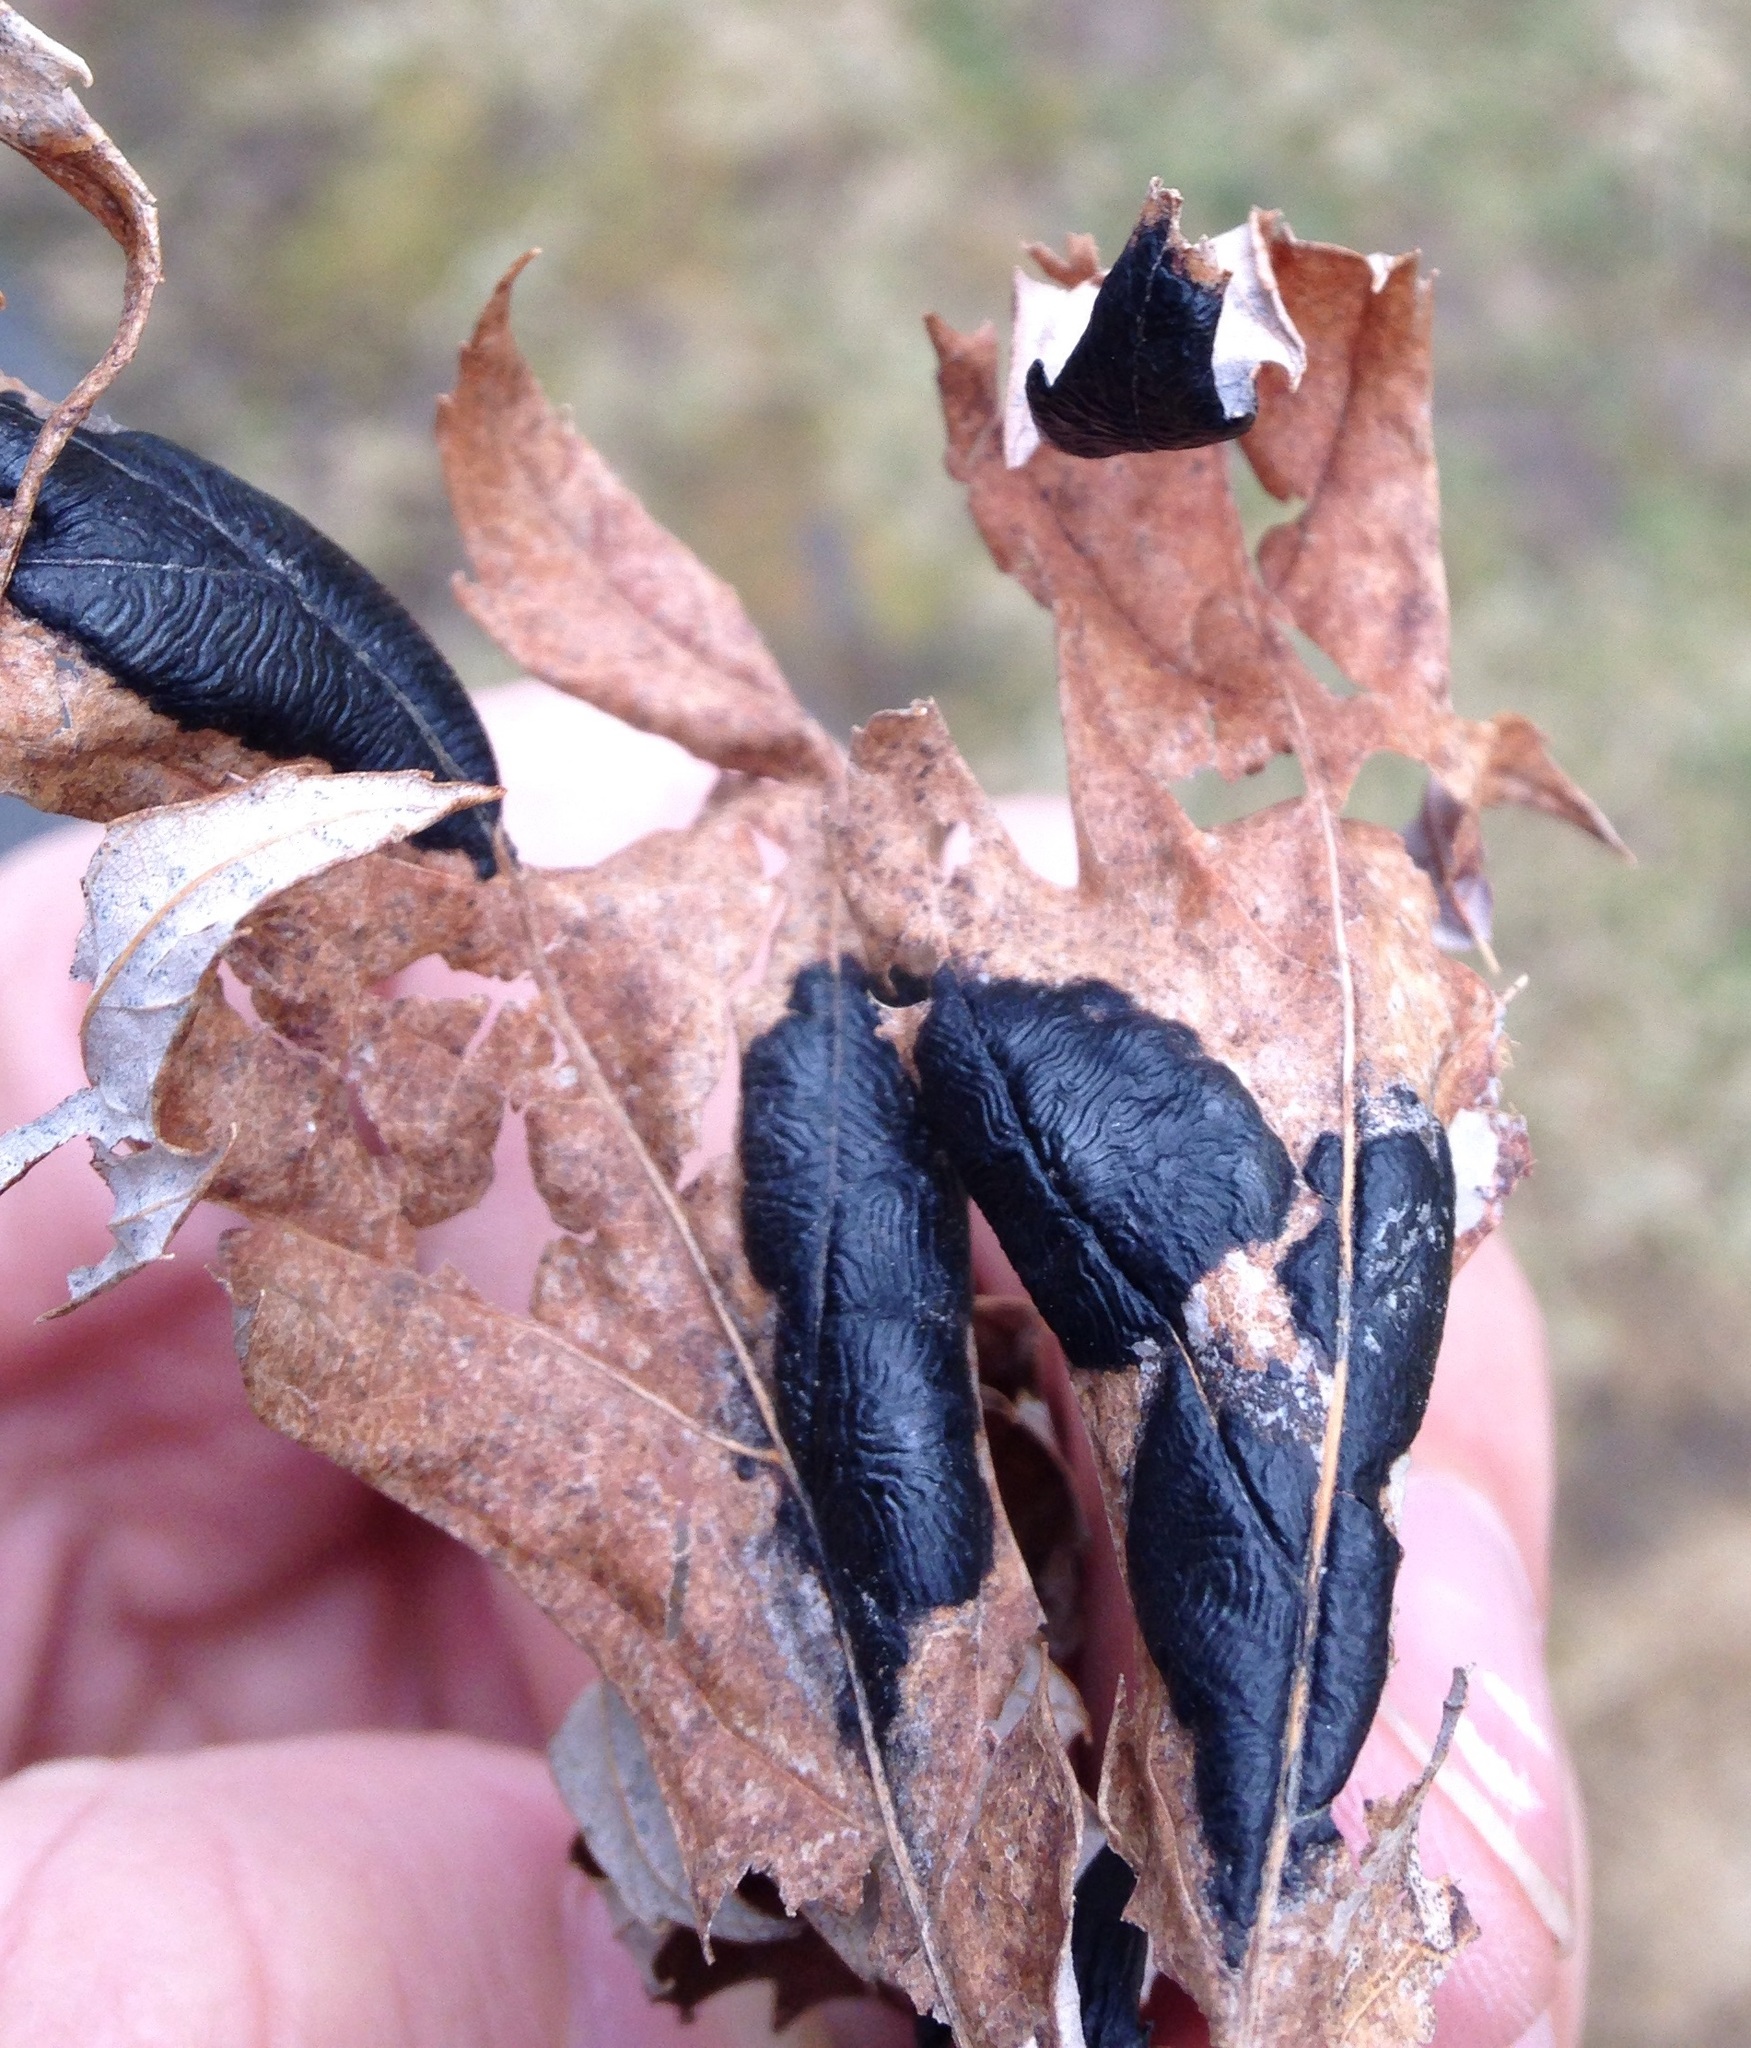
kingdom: Fungi
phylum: Ascomycota
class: Leotiomycetes
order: Rhytismatales
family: Rhytismataceae
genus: Rhytisma
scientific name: Rhytisma americanum
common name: American tar spot
